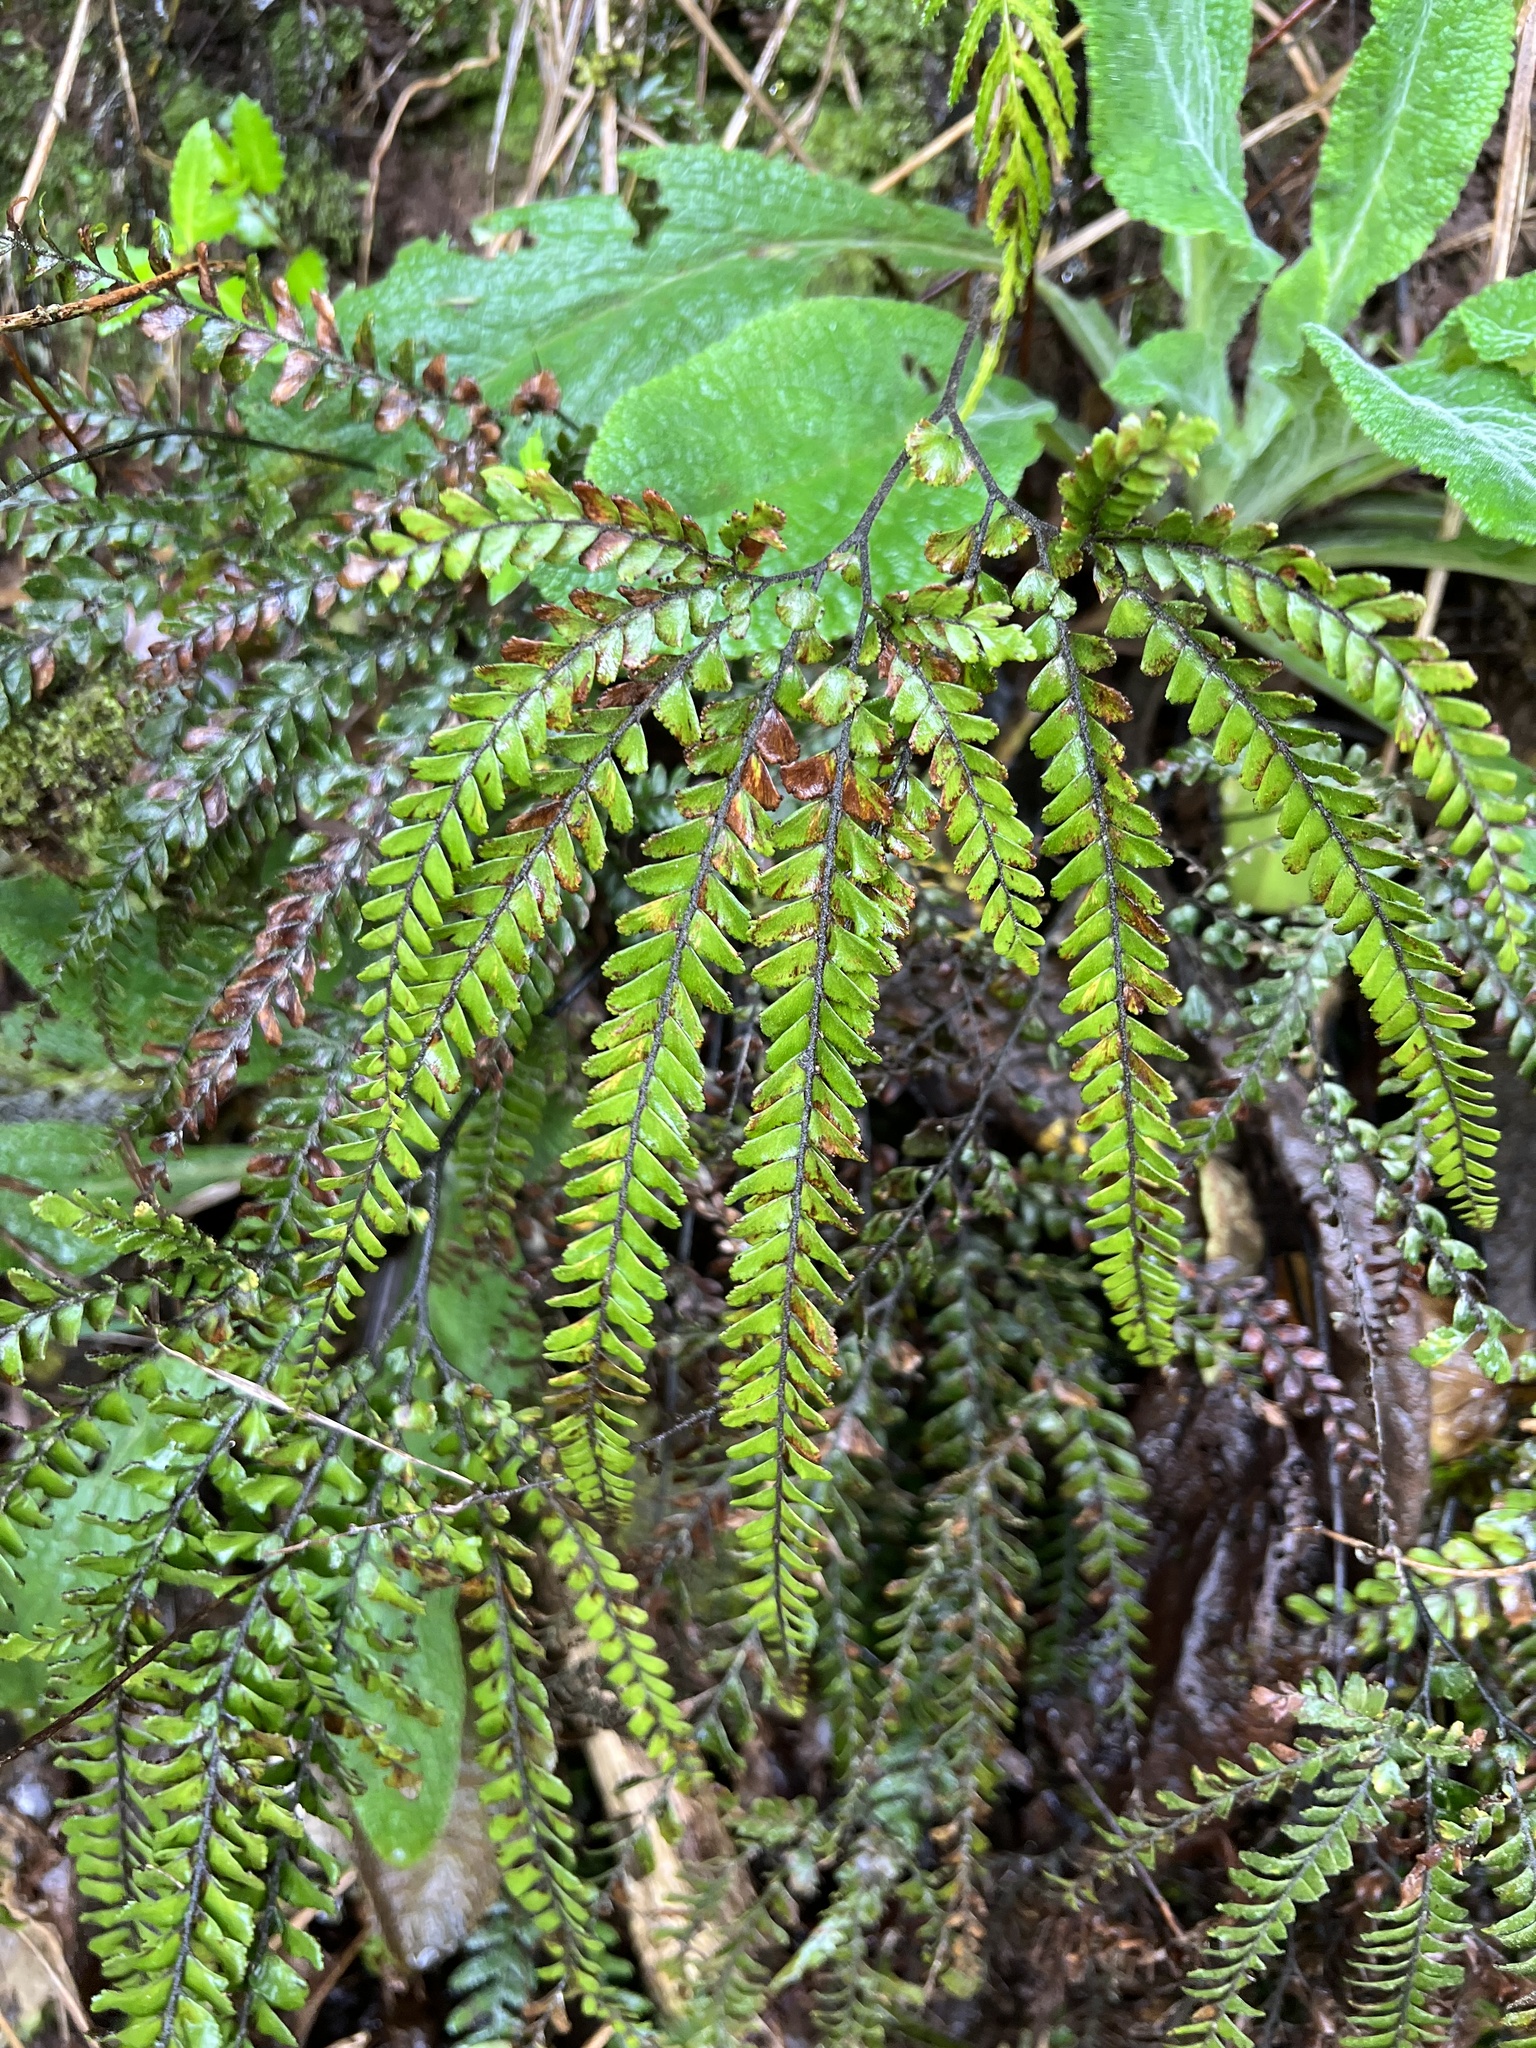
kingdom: Plantae
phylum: Tracheophyta
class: Polypodiopsida
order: Polypodiales
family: Pteridaceae
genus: Adiantum
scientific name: Adiantum hispidulum
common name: Rough maidenhair
